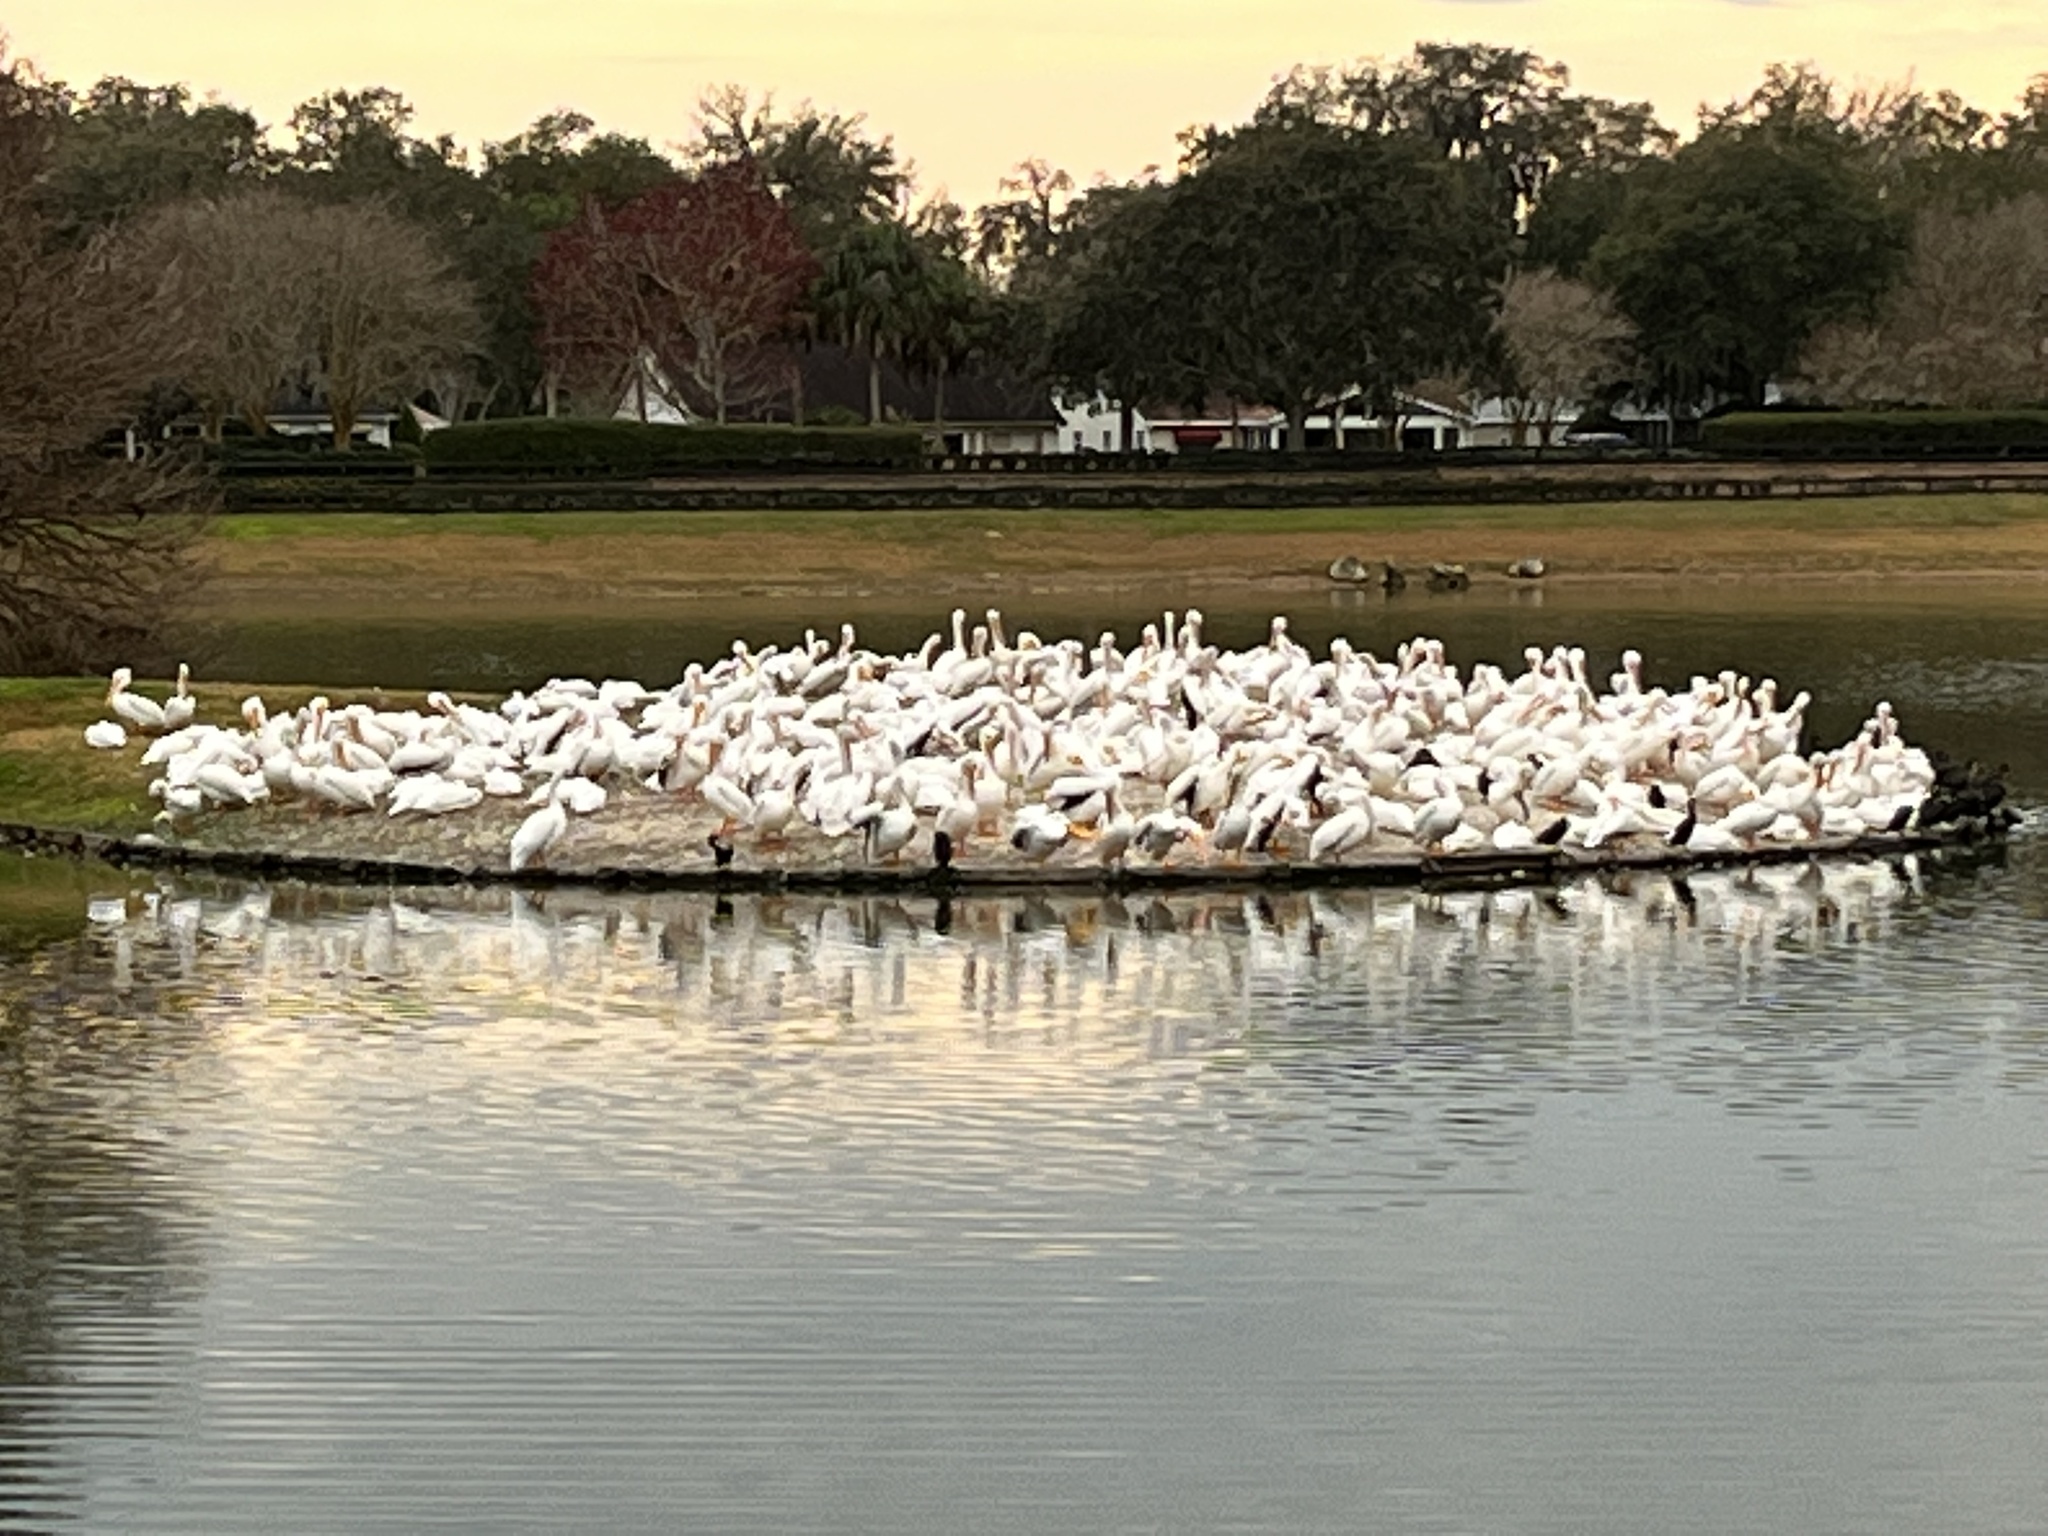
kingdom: Animalia
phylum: Chordata
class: Aves
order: Pelecaniformes
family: Pelecanidae
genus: Pelecanus
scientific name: Pelecanus erythrorhynchos
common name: American white pelican
